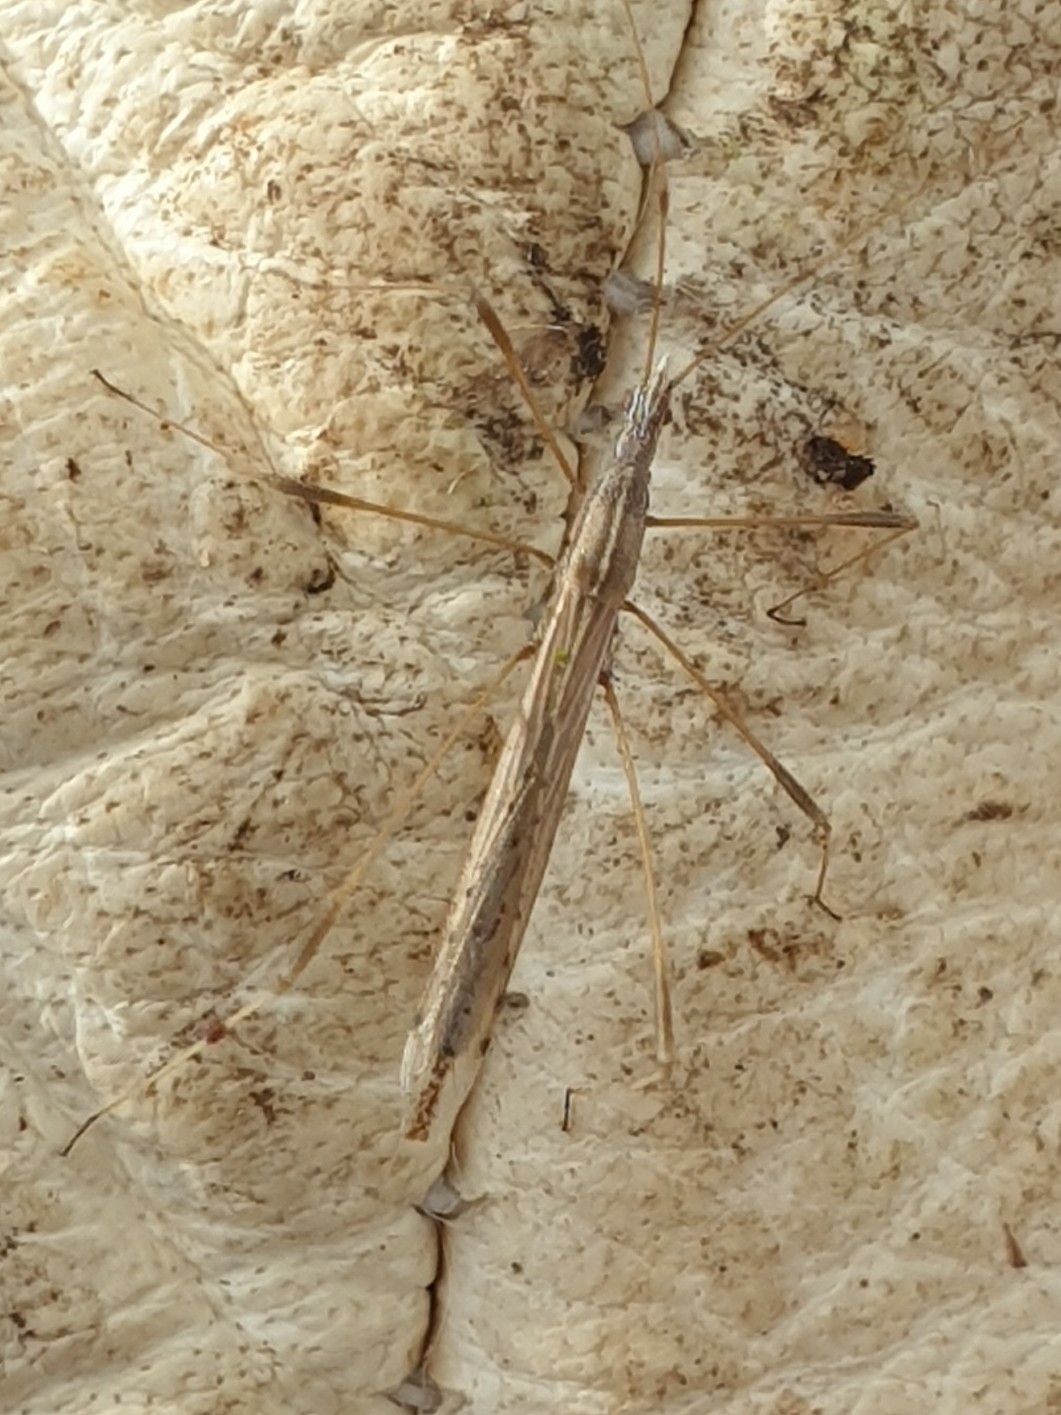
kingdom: Animalia
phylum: Arthropoda
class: Insecta
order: Hemiptera
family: Berytidae
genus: Neides
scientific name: Neides tipularius
